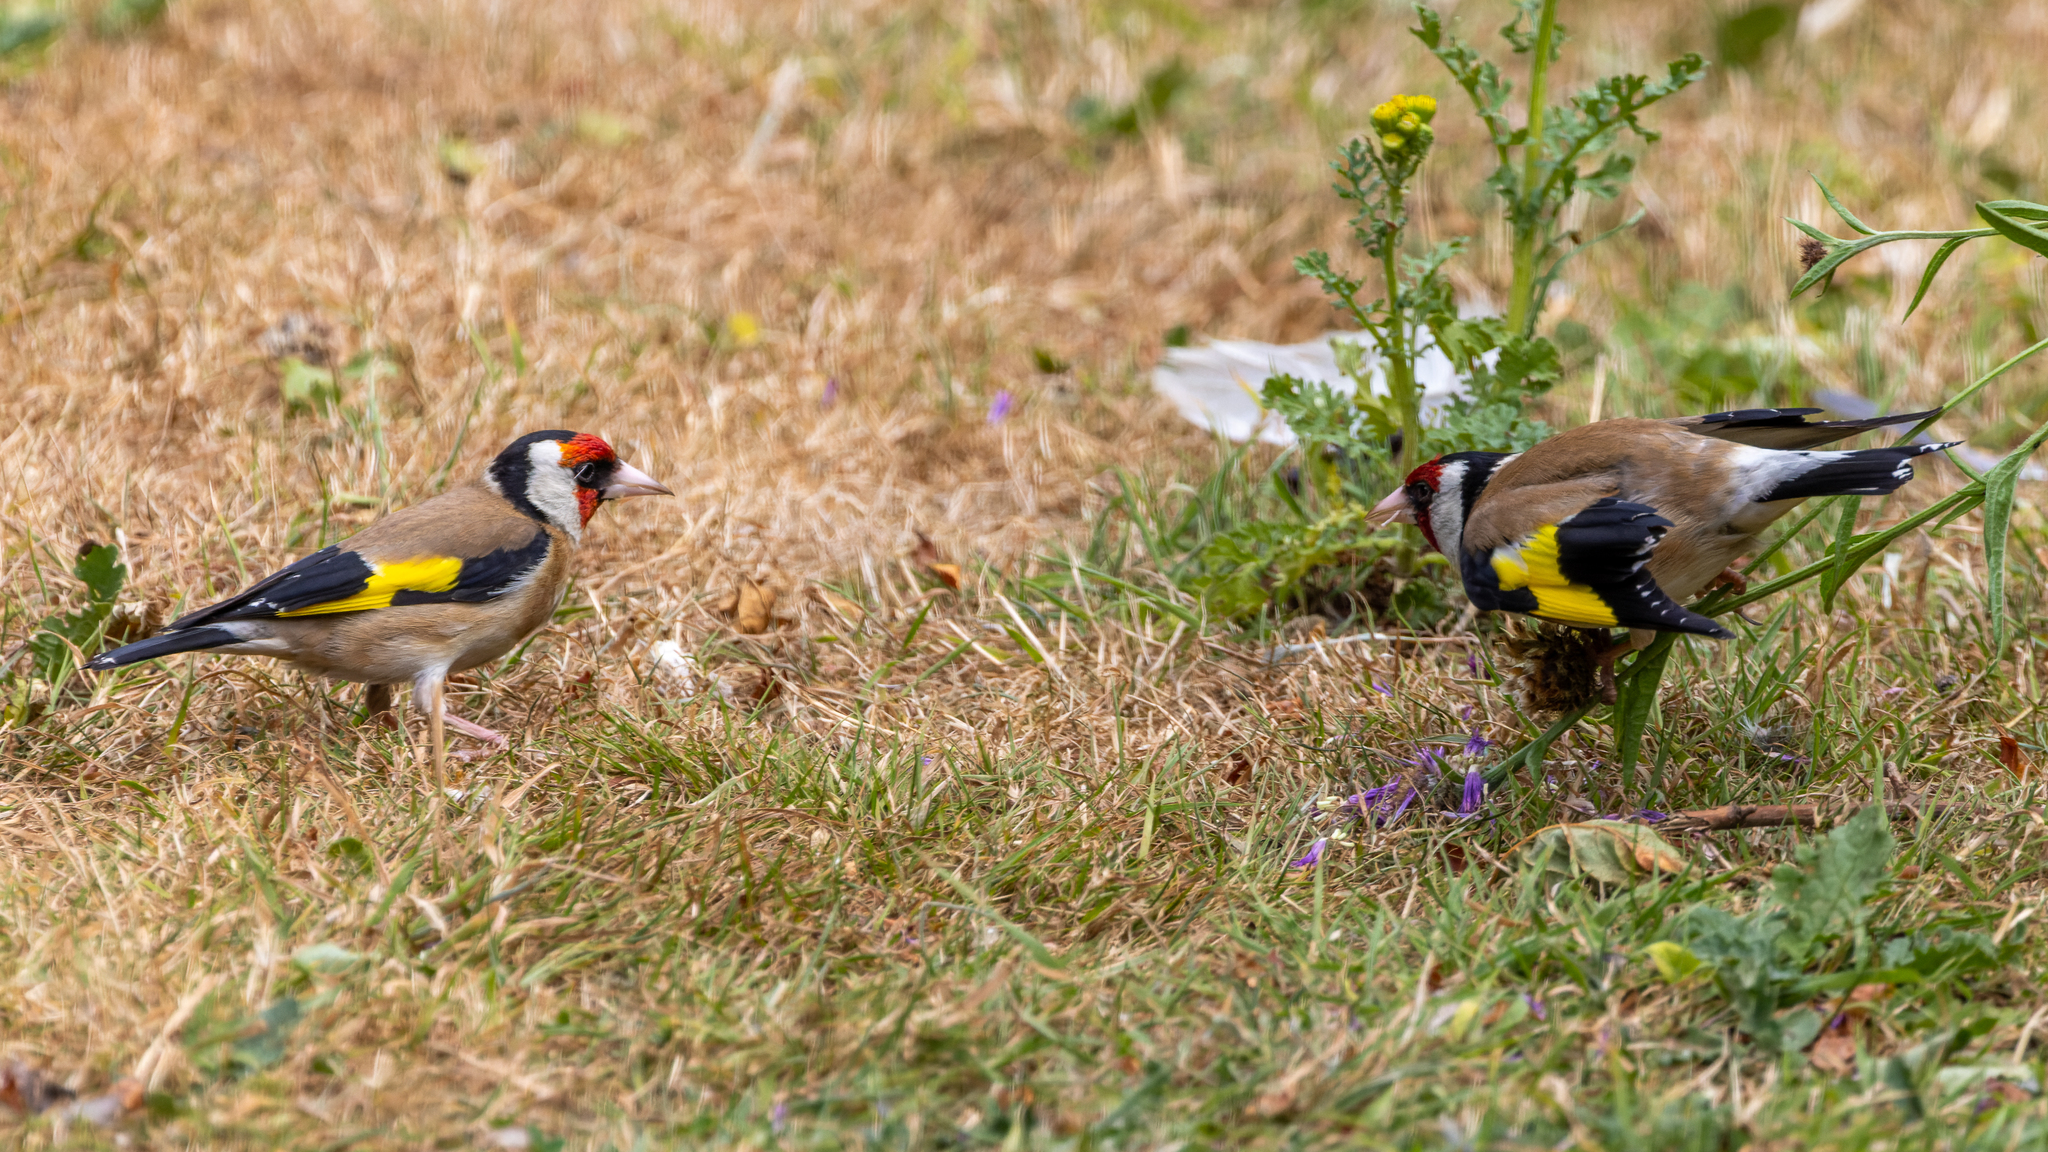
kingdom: Animalia
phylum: Chordata
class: Aves
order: Passeriformes
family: Fringillidae
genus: Carduelis
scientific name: Carduelis carduelis
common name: European goldfinch
